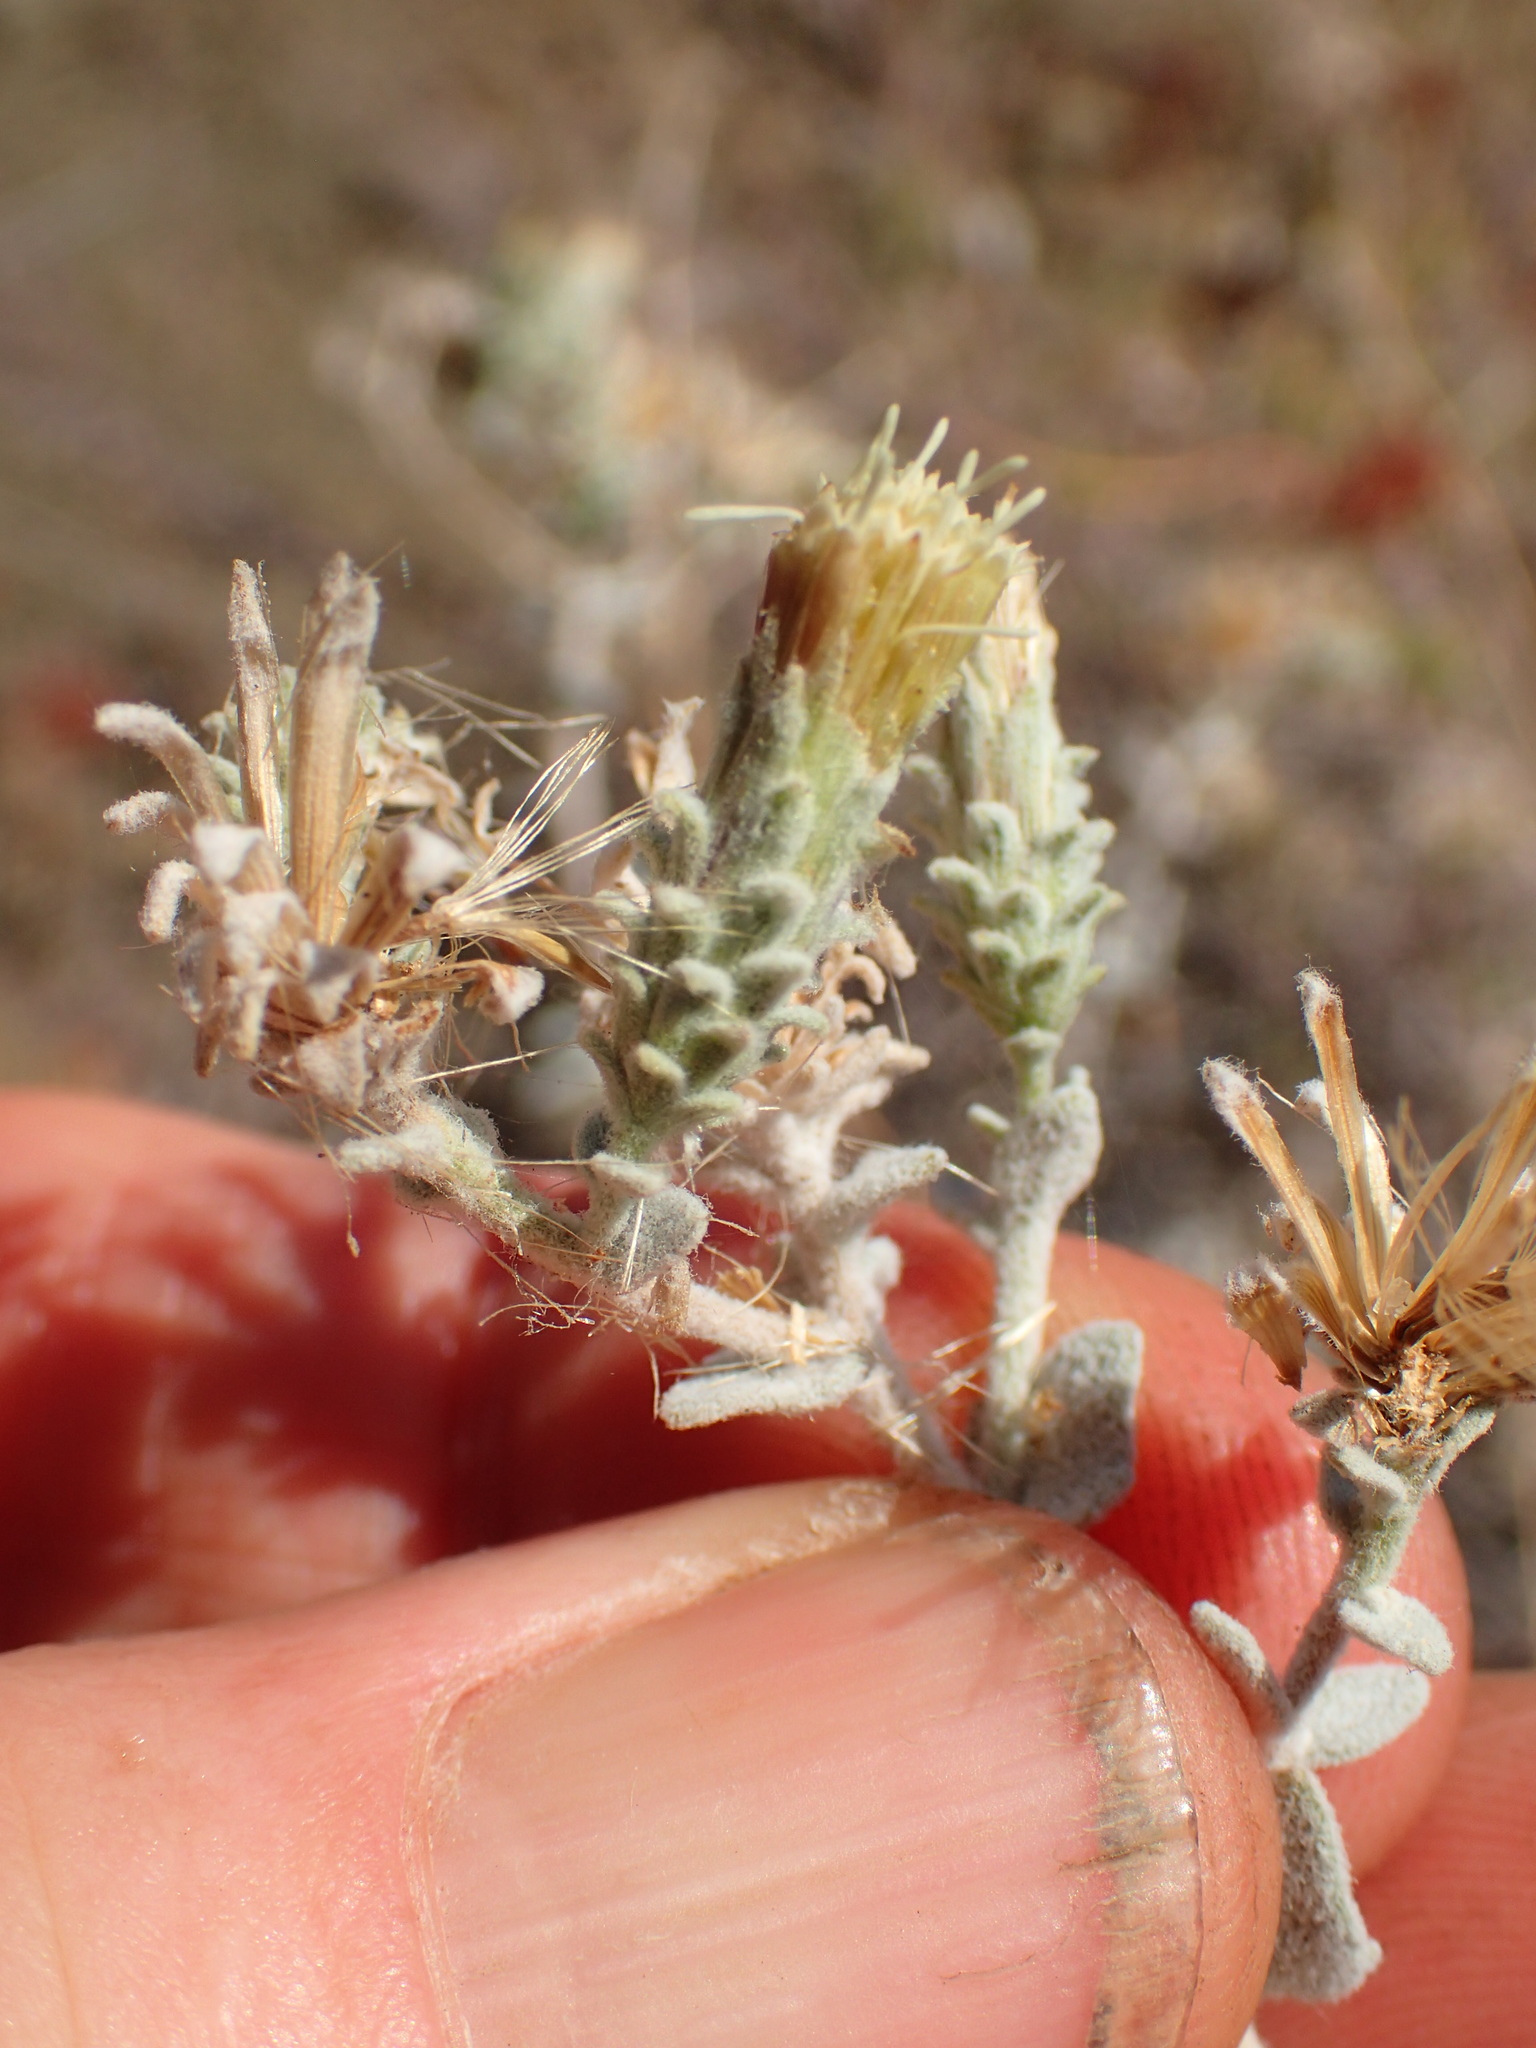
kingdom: Plantae
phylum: Tracheophyta
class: Magnoliopsida
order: Asterales
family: Asteraceae
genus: Brickellia
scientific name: Brickellia nevinii
